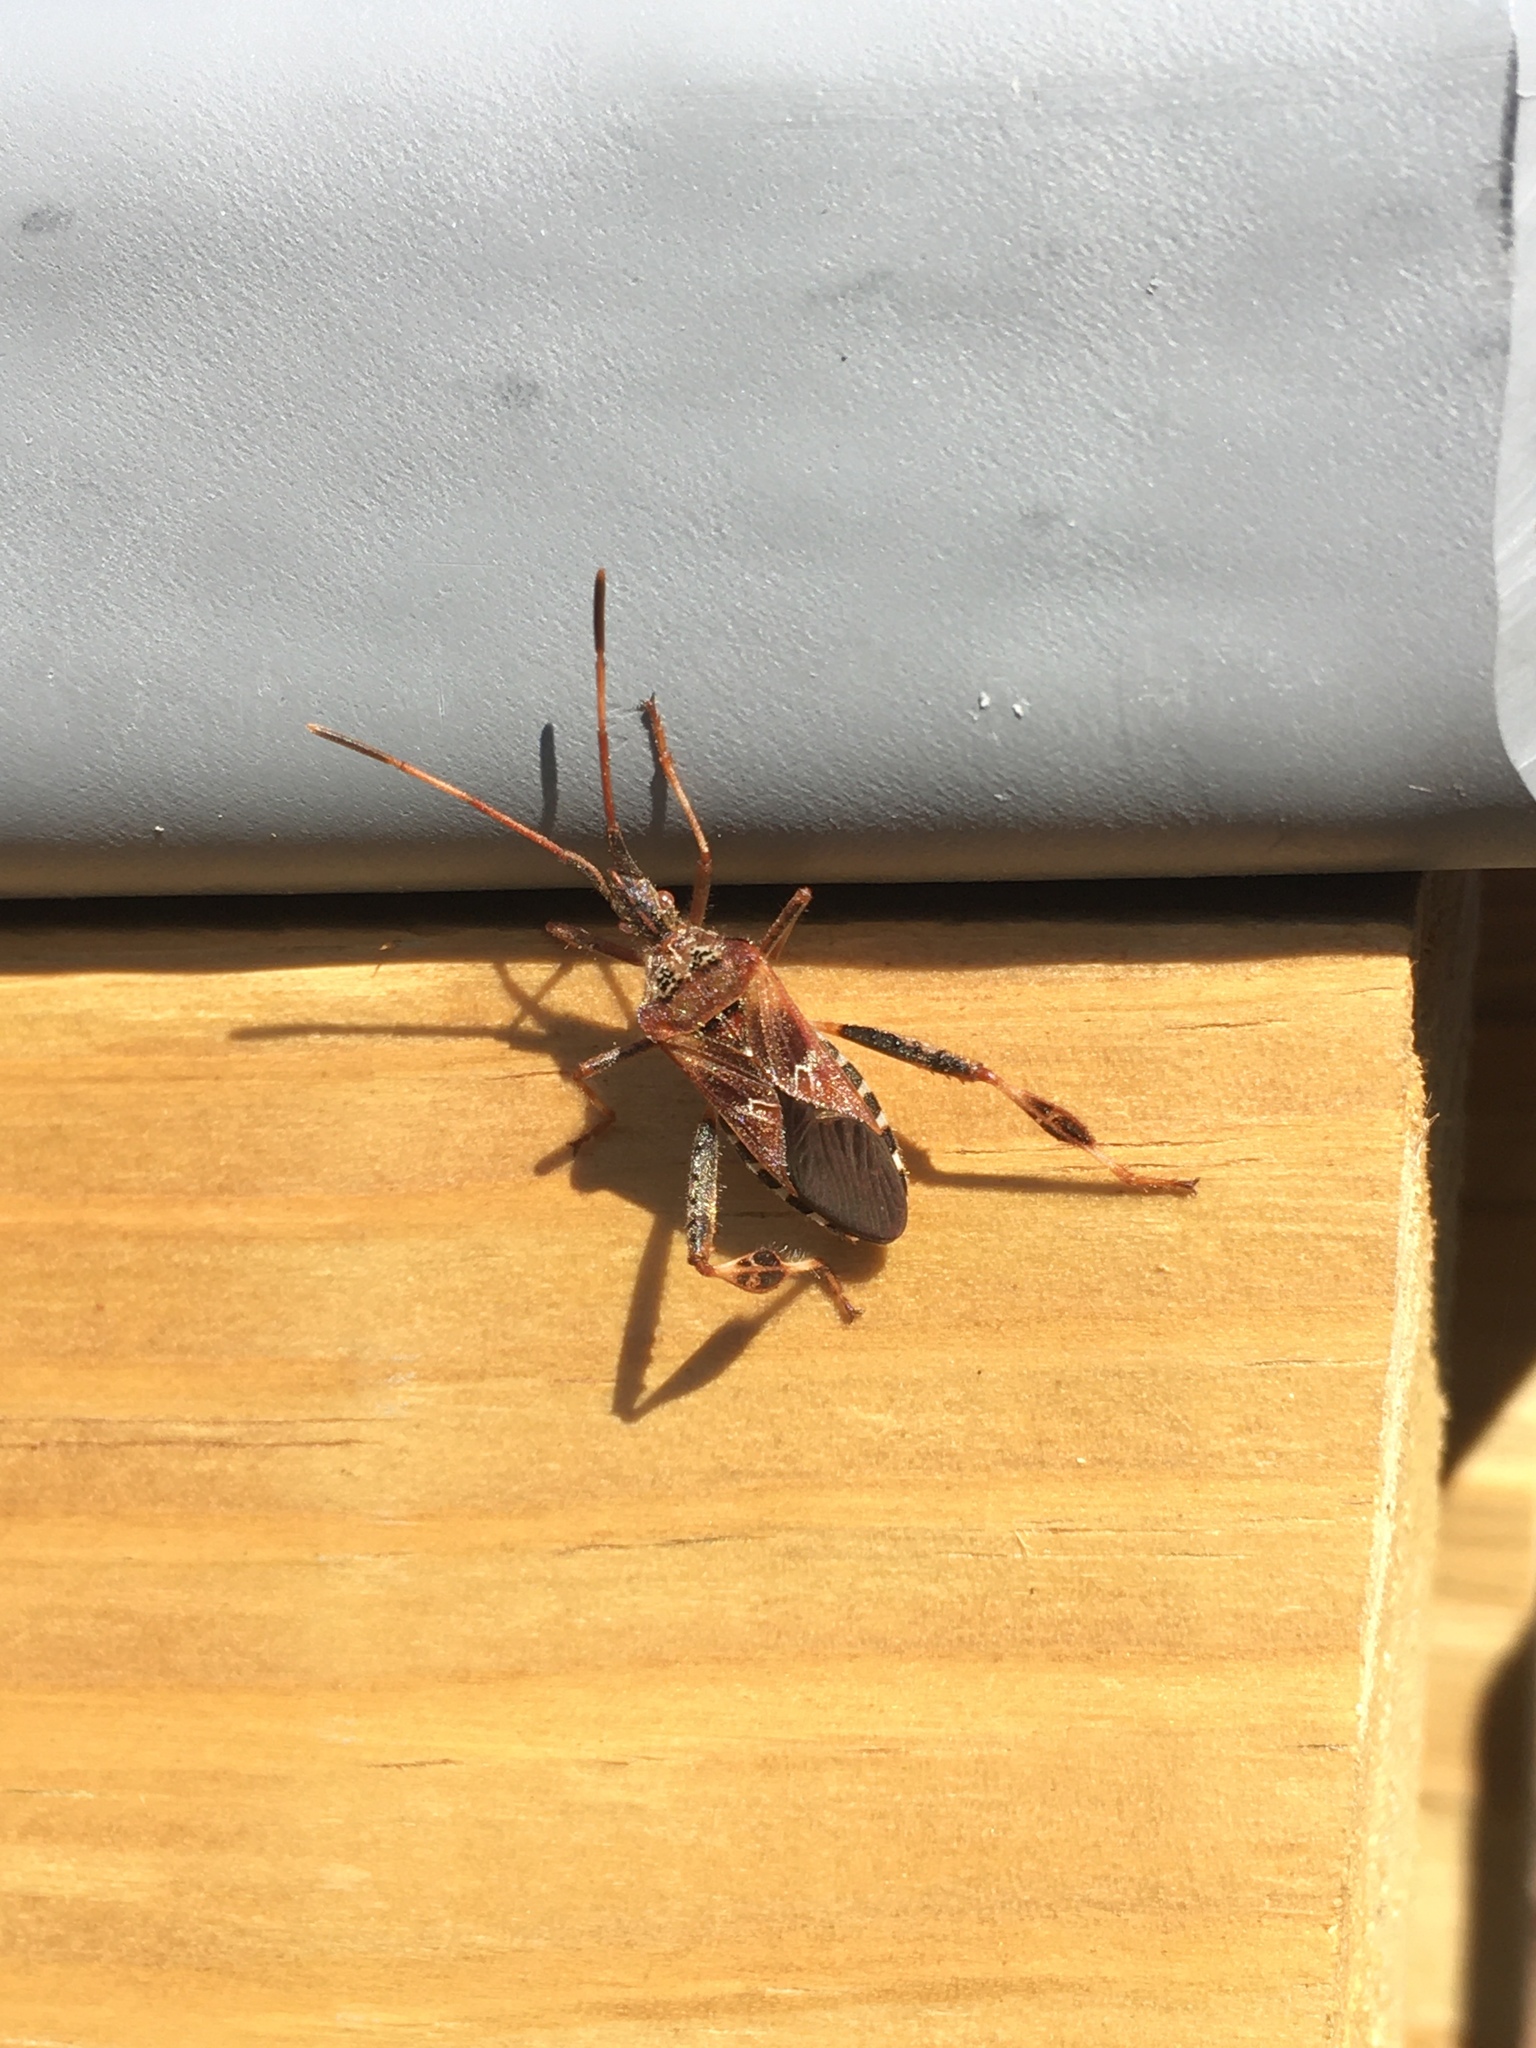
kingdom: Animalia
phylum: Arthropoda
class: Insecta
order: Hemiptera
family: Coreidae
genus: Leptoglossus
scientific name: Leptoglossus occidentalis
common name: Western conifer-seed bug
